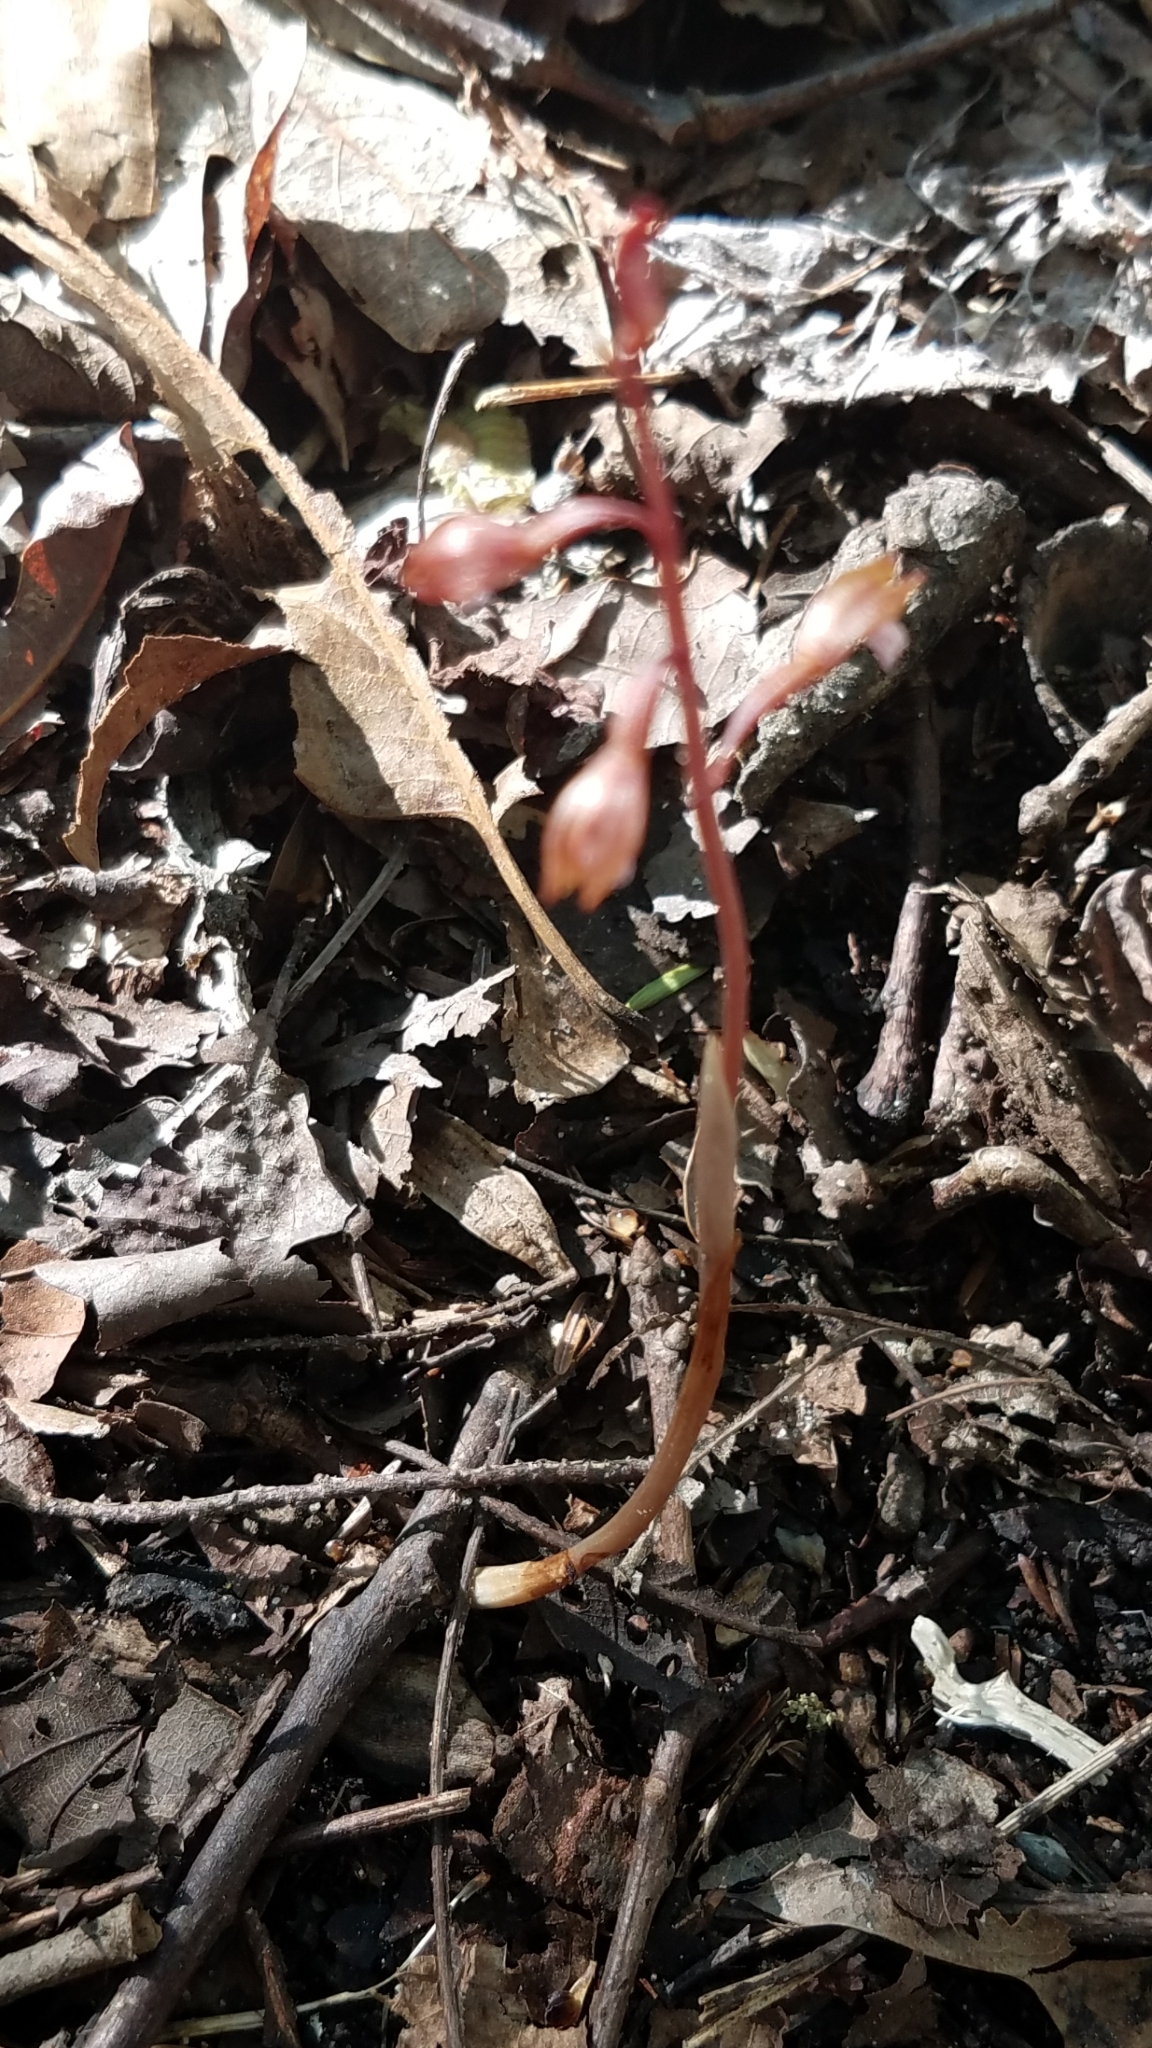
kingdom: Plantae
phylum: Tracheophyta
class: Liliopsida
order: Asparagales
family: Orchidaceae
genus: Corallorhiza
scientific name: Corallorhiza wisteriana
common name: Spring coralroot
